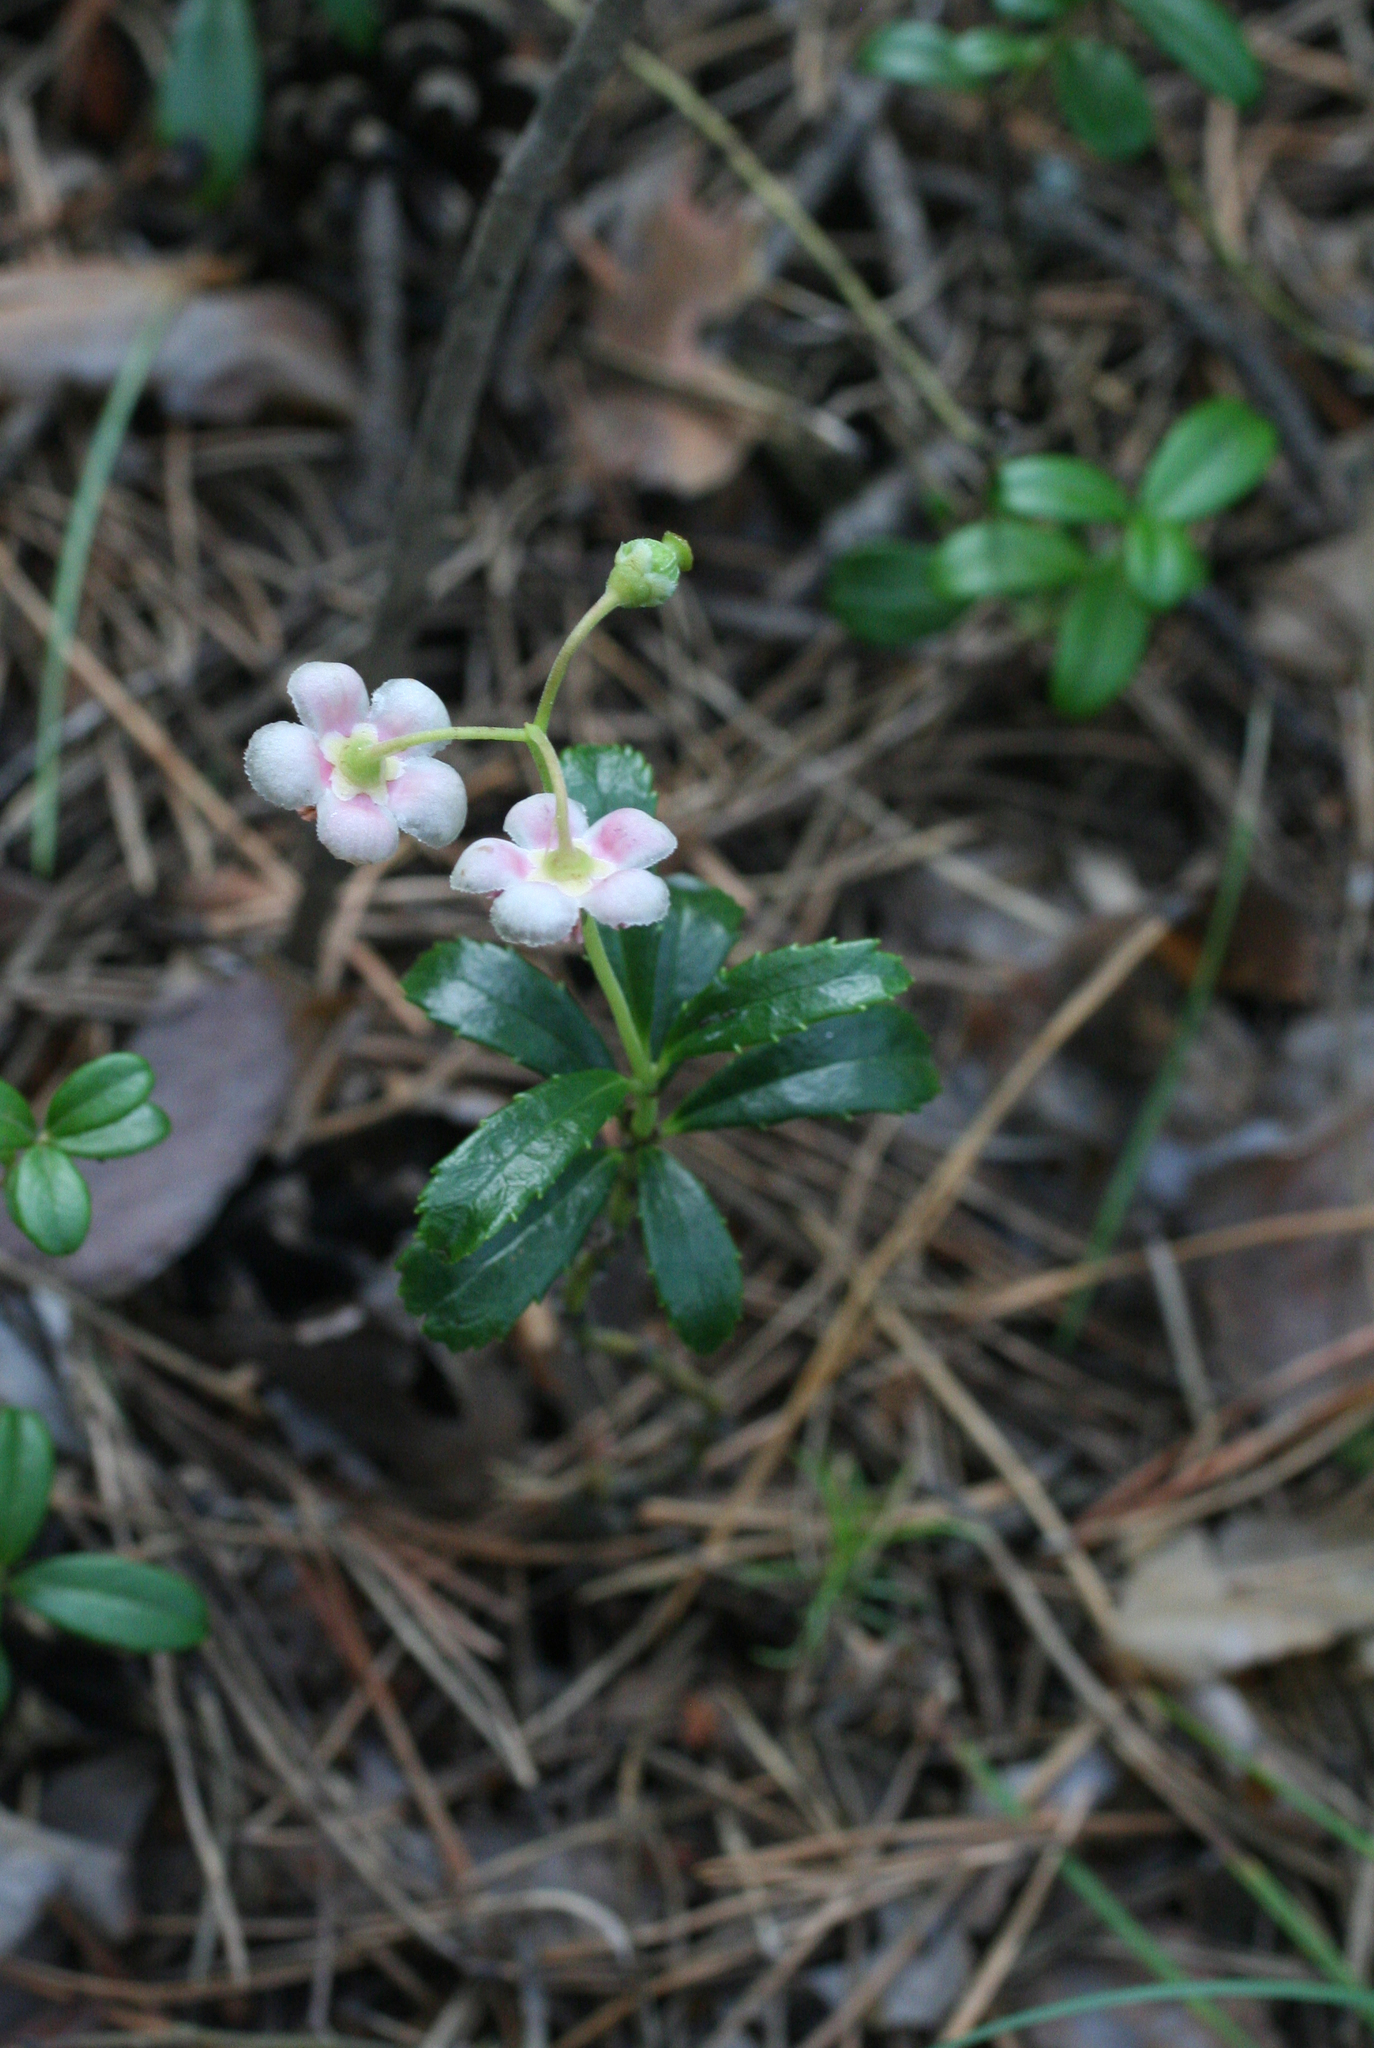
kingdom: Plantae
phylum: Tracheophyta
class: Magnoliopsida
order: Ericales
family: Ericaceae
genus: Chimaphila
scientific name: Chimaphila umbellata
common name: Pipsissewa
